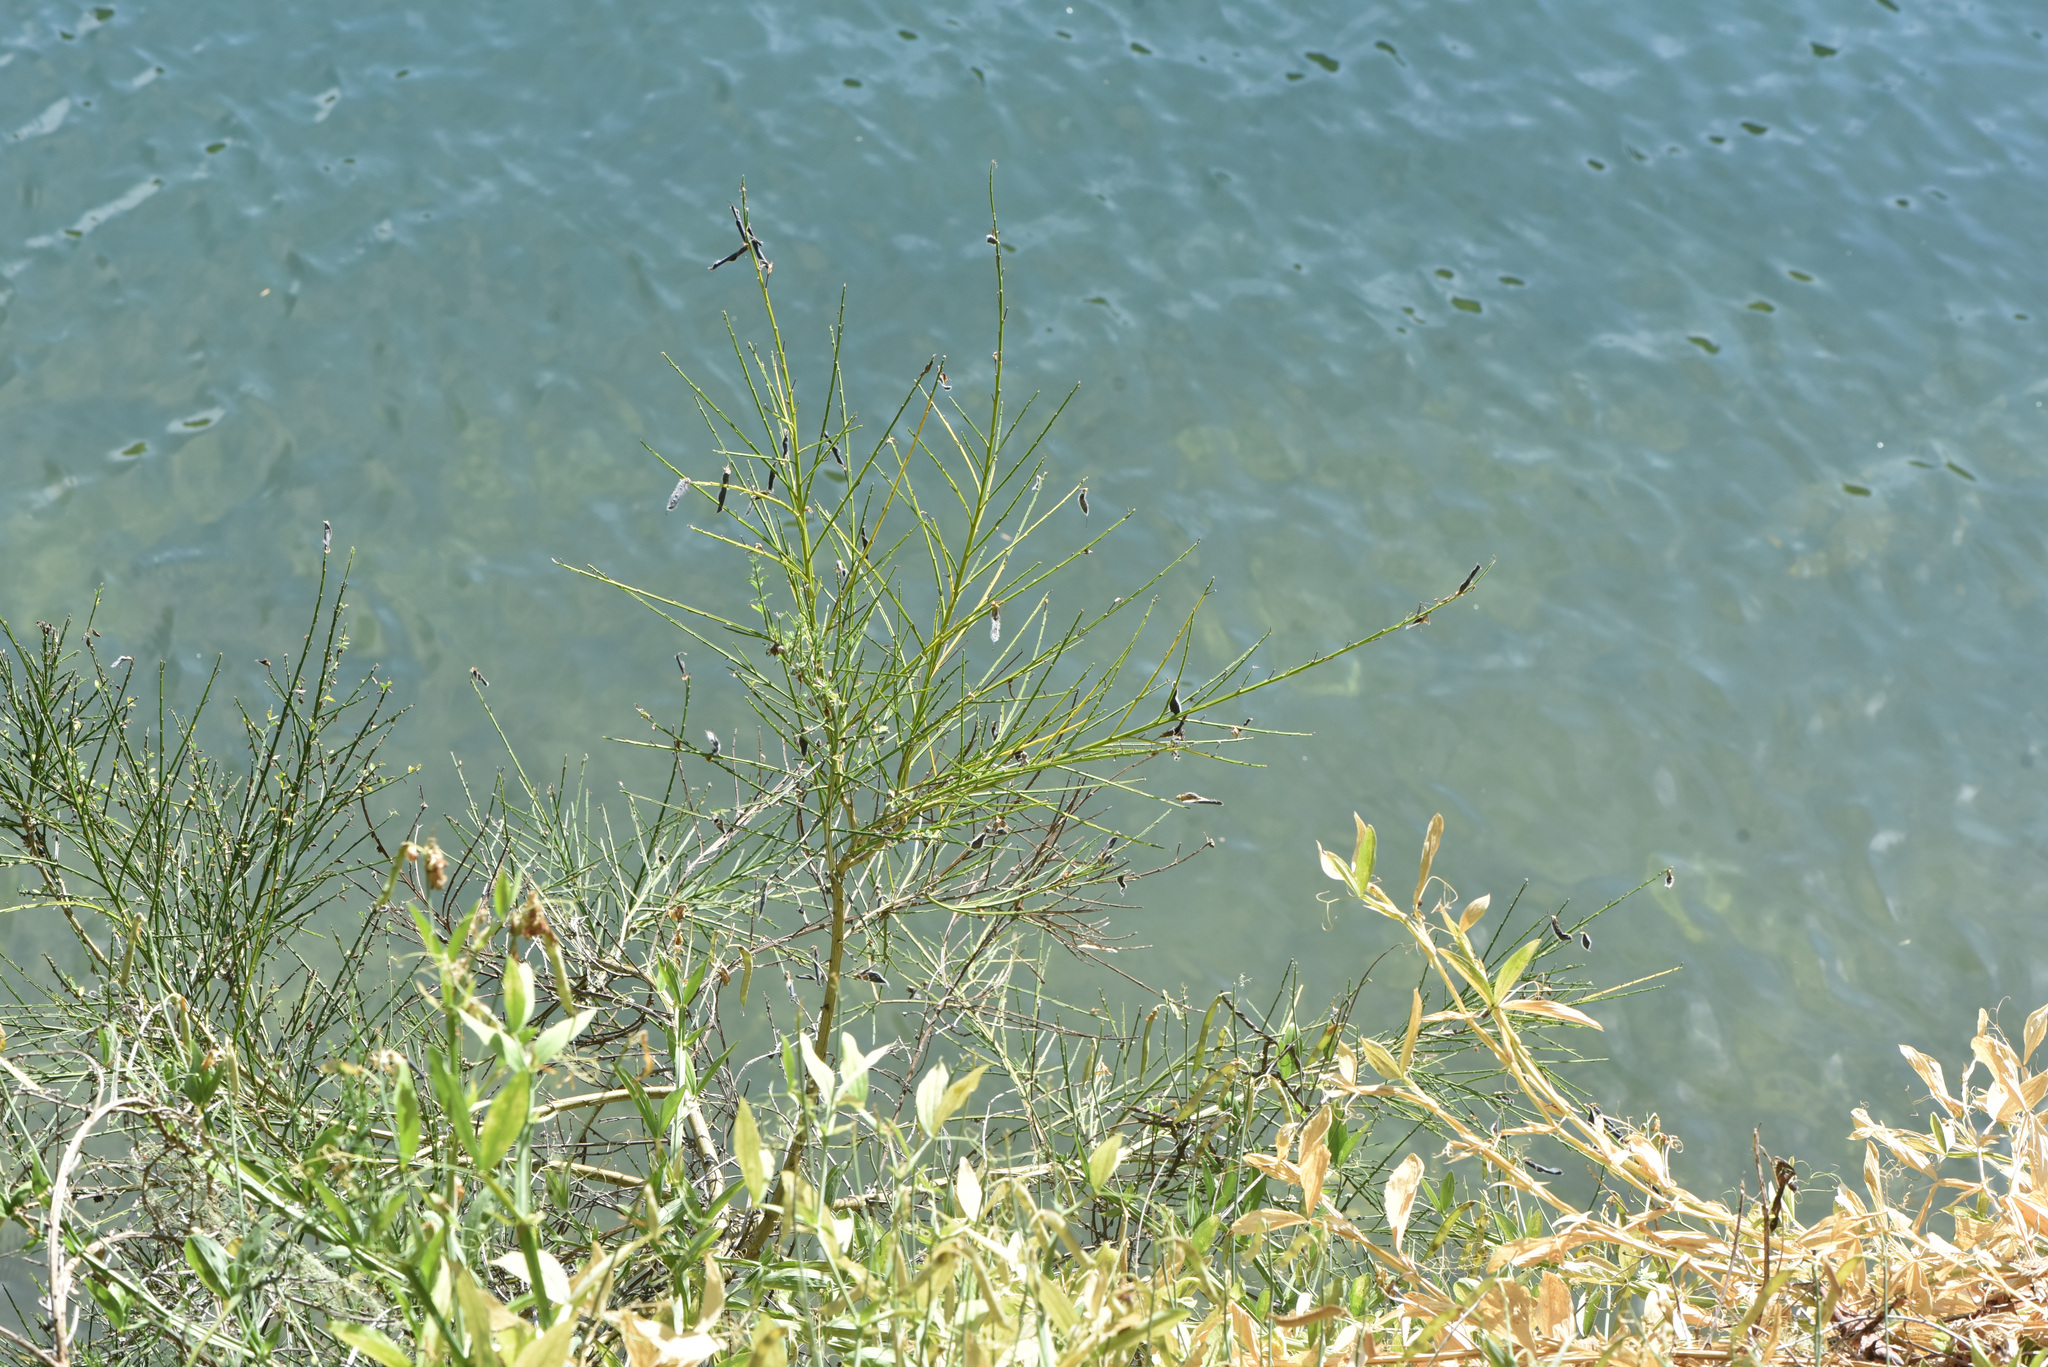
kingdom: Plantae
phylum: Tracheophyta
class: Magnoliopsida
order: Fabales
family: Fabaceae
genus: Cytisus
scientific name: Cytisus scoparius
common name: Scotch broom
